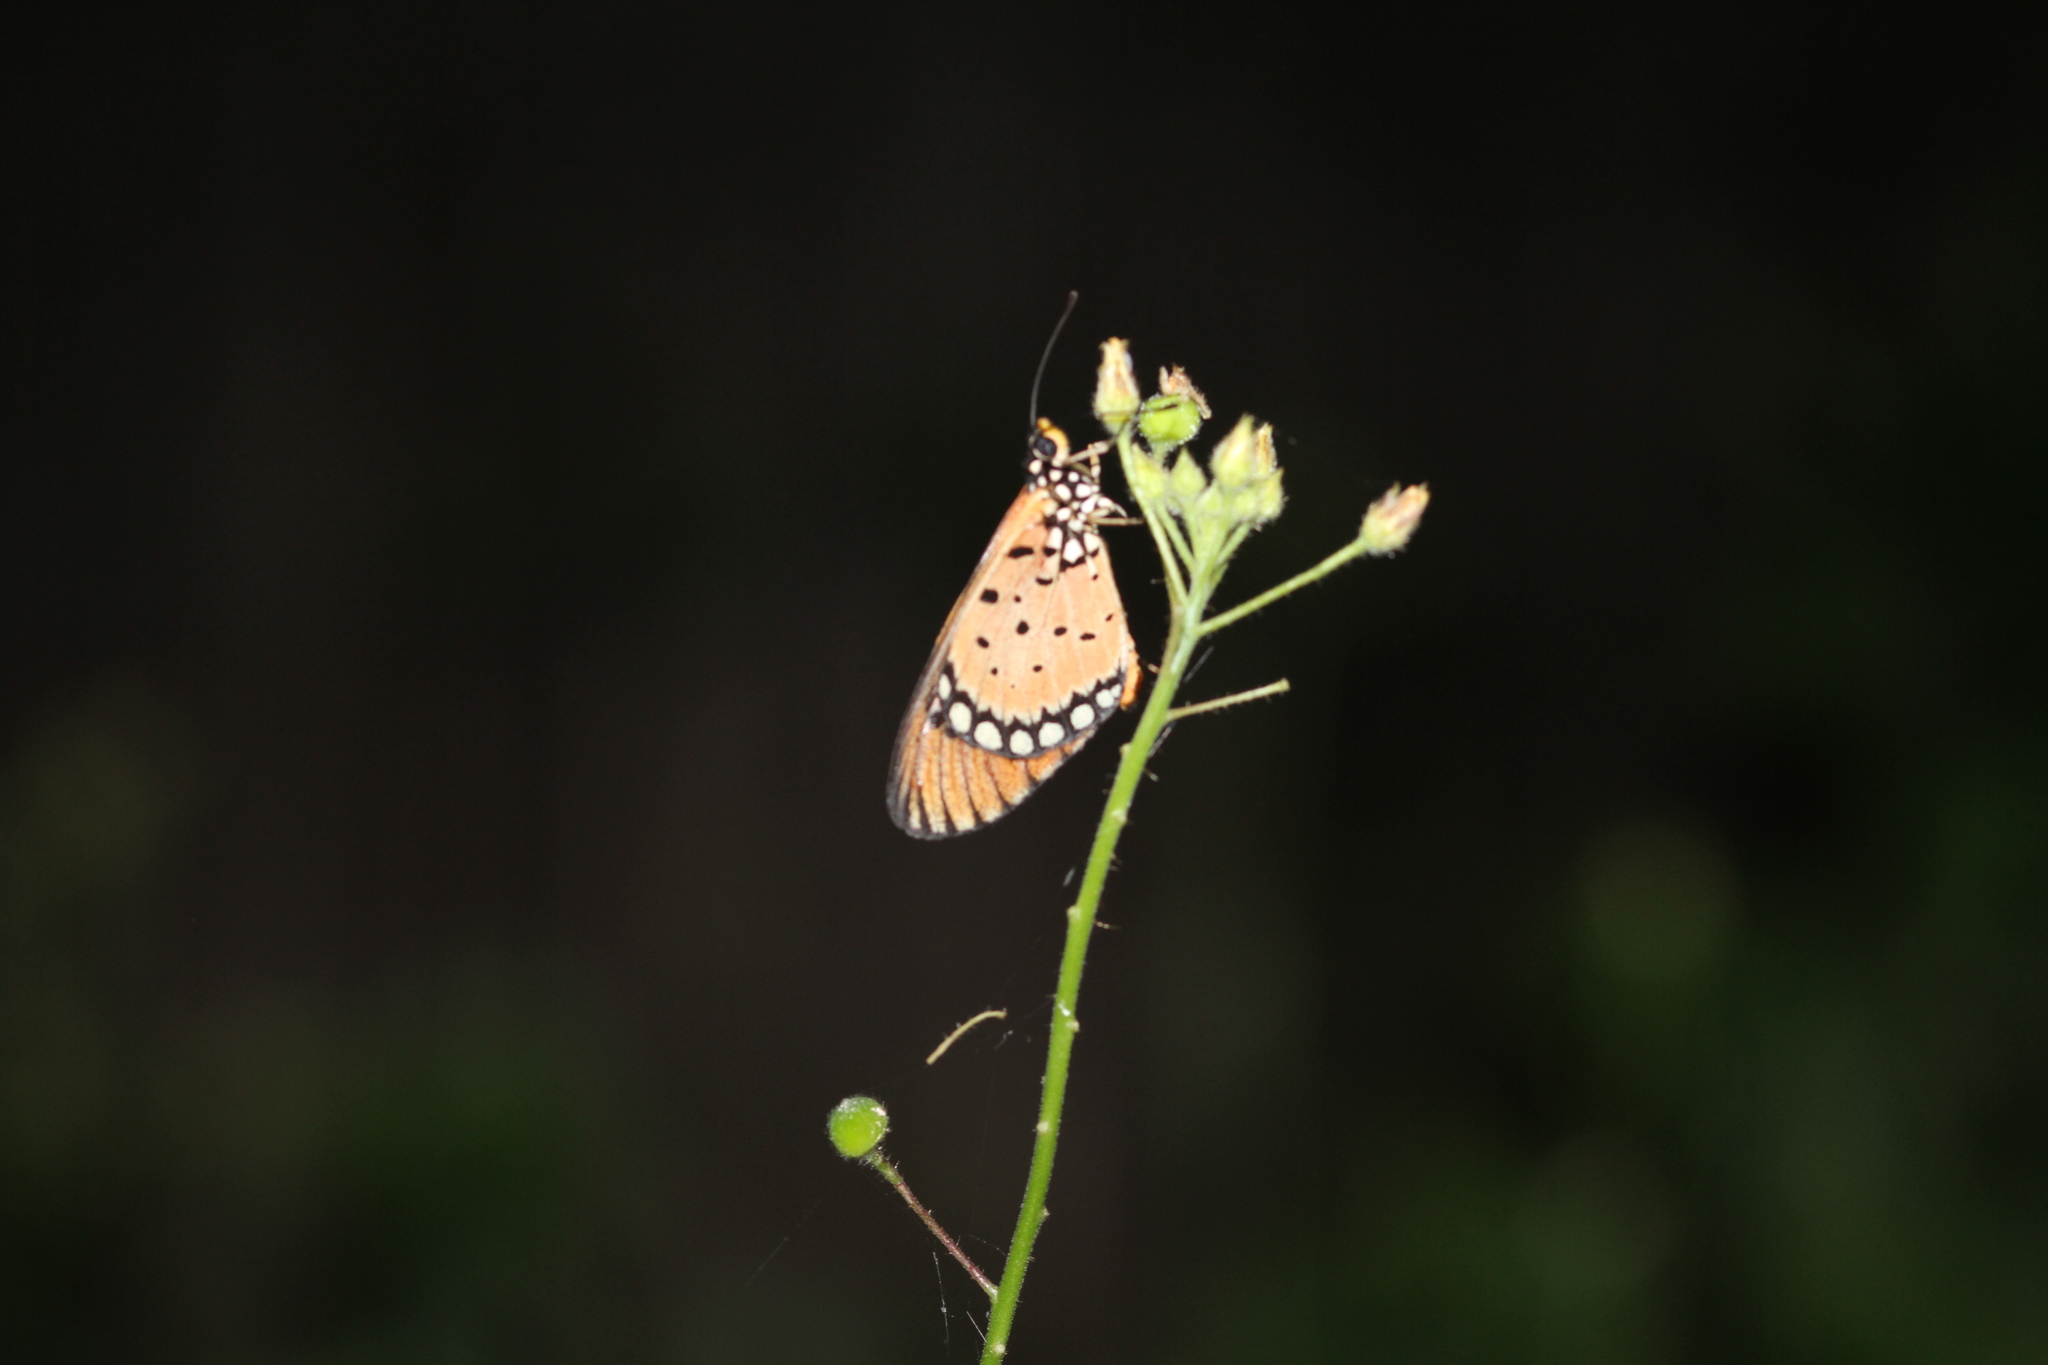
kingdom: Animalia
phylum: Arthropoda
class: Insecta
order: Lepidoptera
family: Nymphalidae
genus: Acraea
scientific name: Acraea terpsicore
